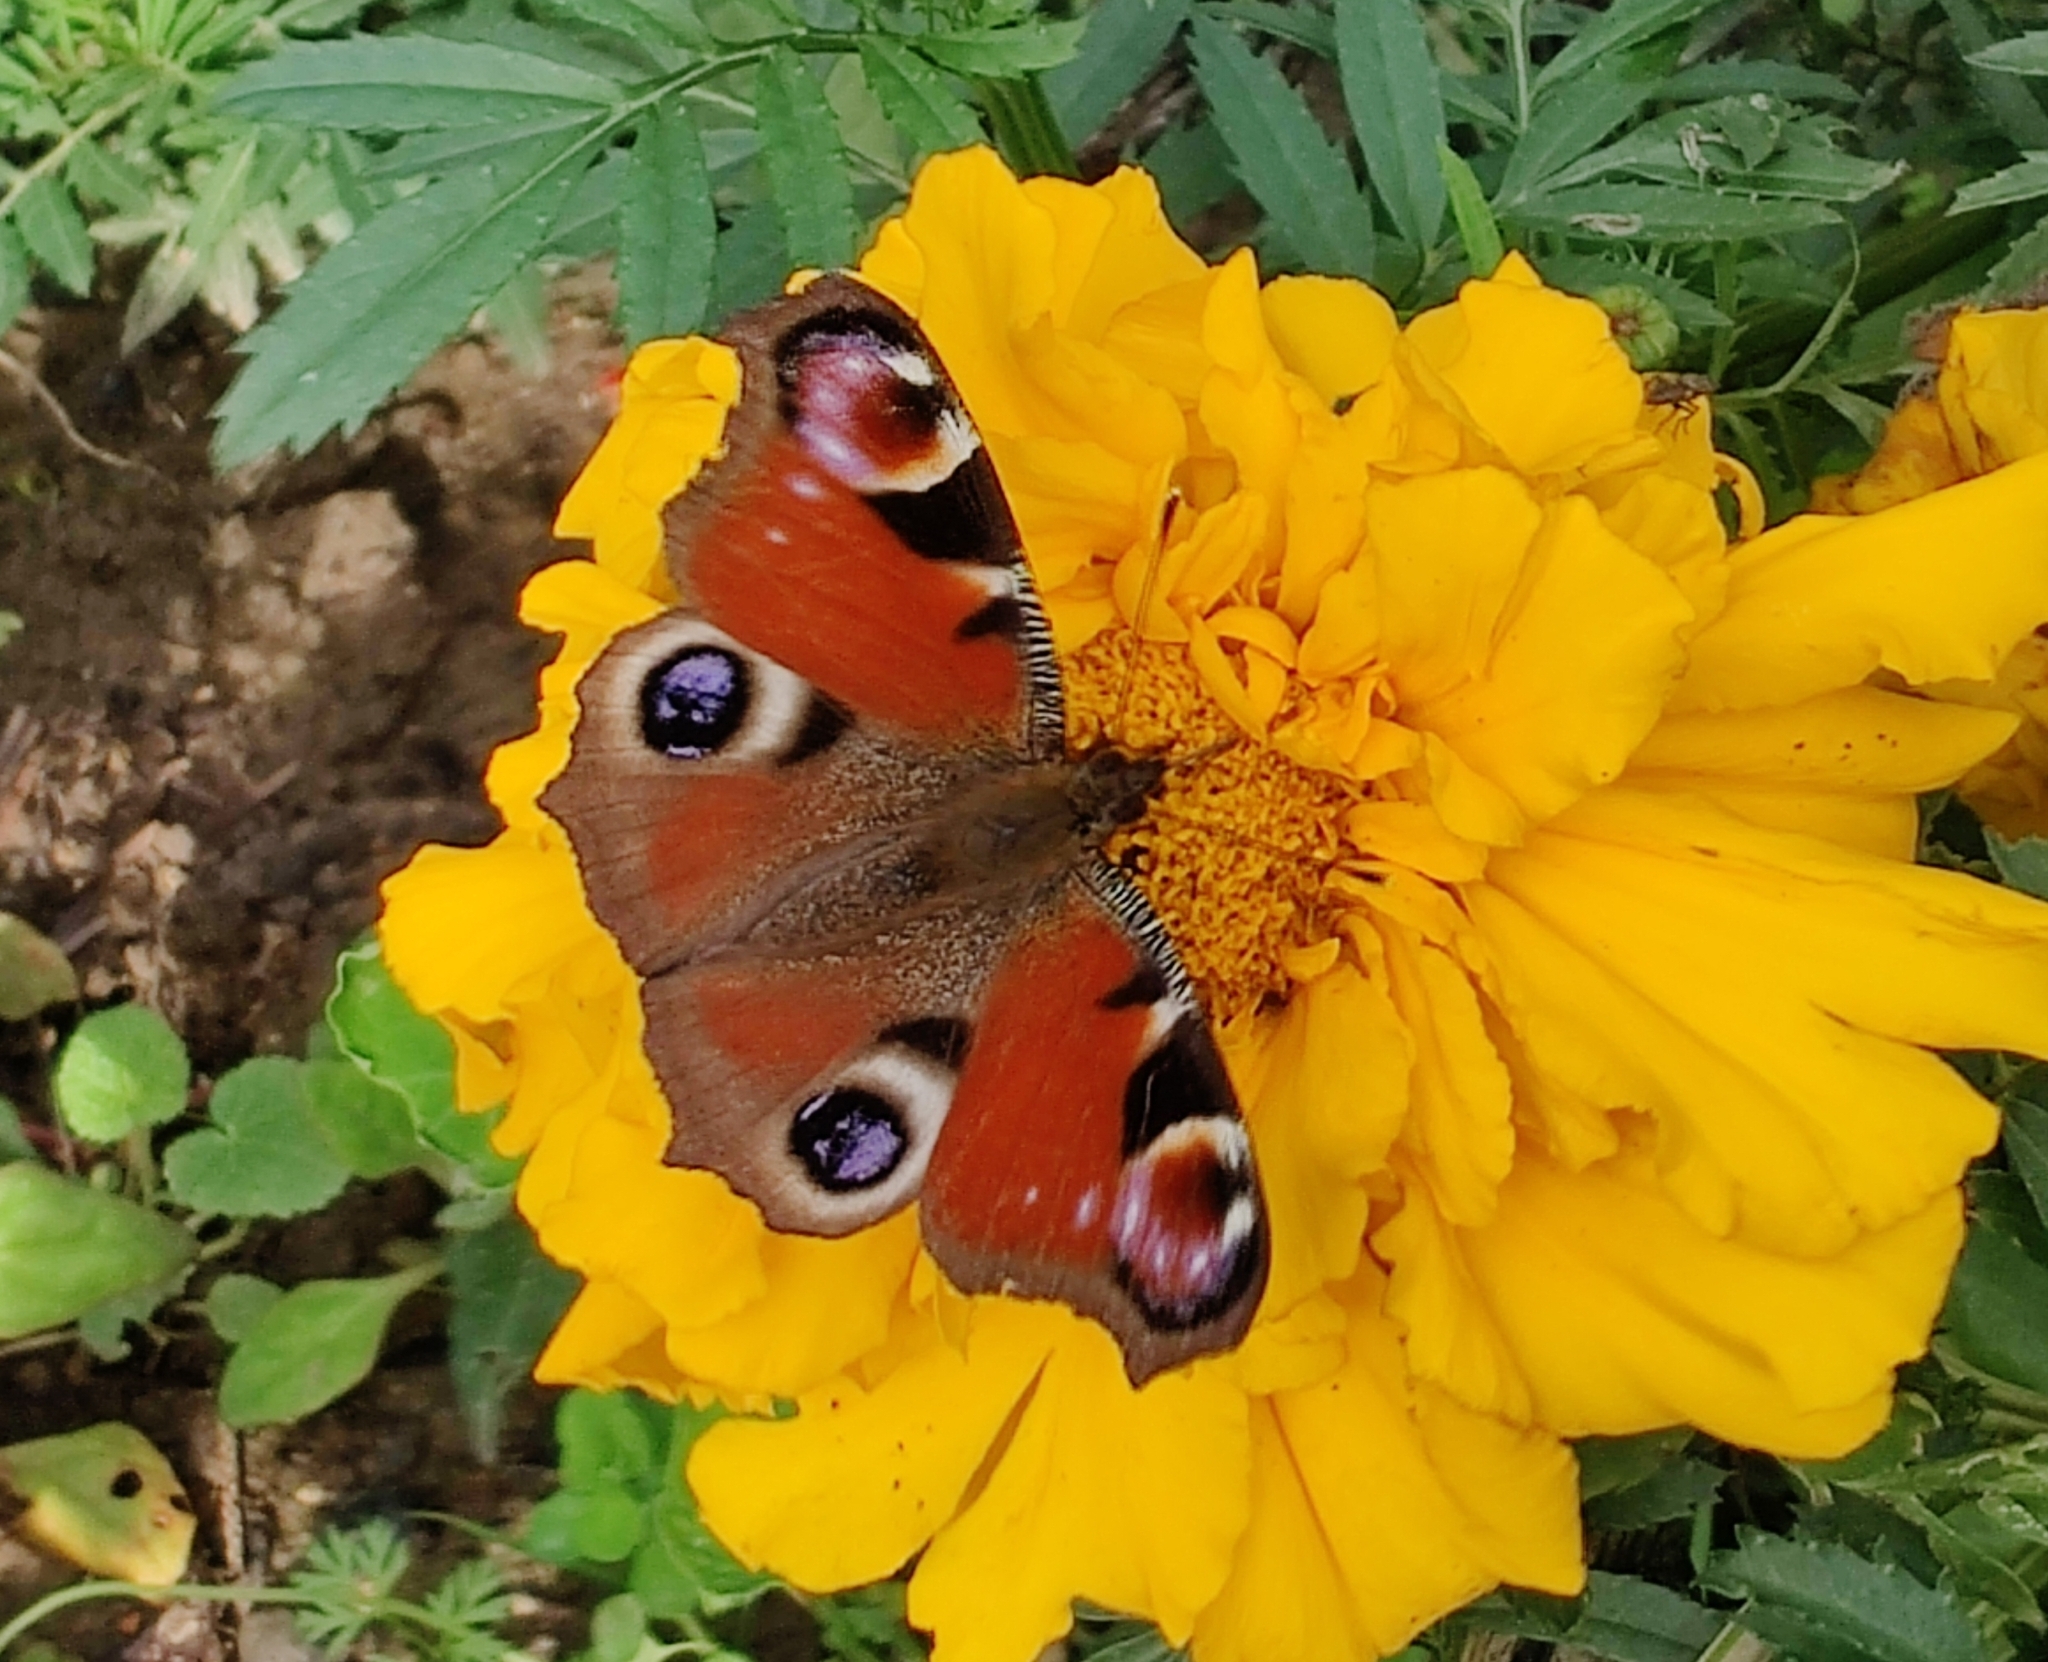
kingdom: Animalia
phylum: Arthropoda
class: Insecta
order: Lepidoptera
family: Nymphalidae
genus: Aglais
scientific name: Aglais io
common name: Peacock
